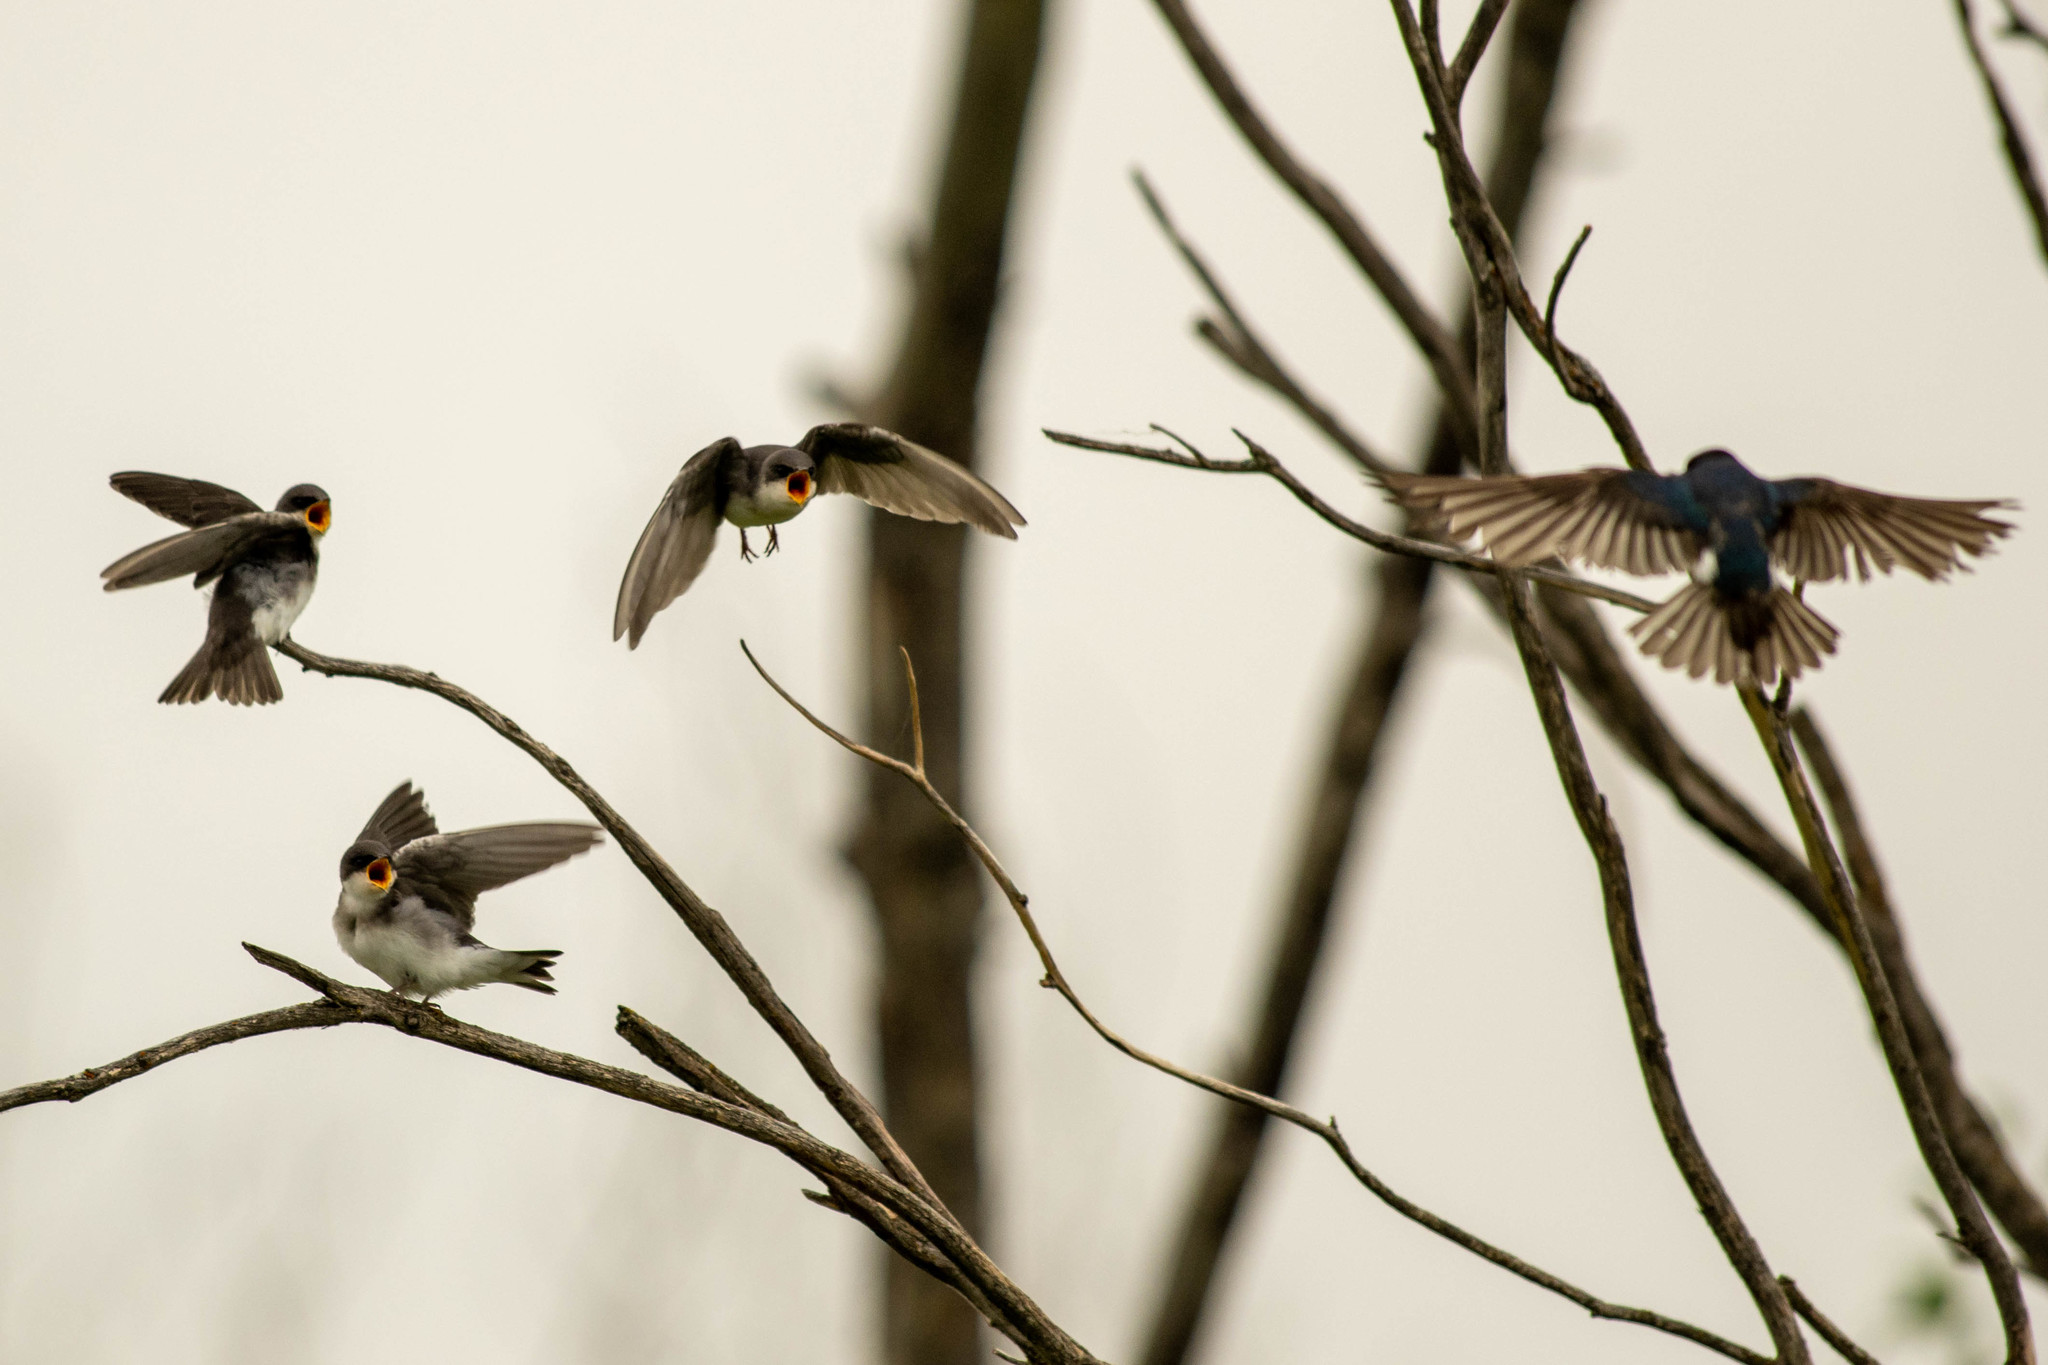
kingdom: Animalia
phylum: Chordata
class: Aves
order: Passeriformes
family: Hirundinidae
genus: Tachycineta
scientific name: Tachycineta bicolor
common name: Tree swallow
